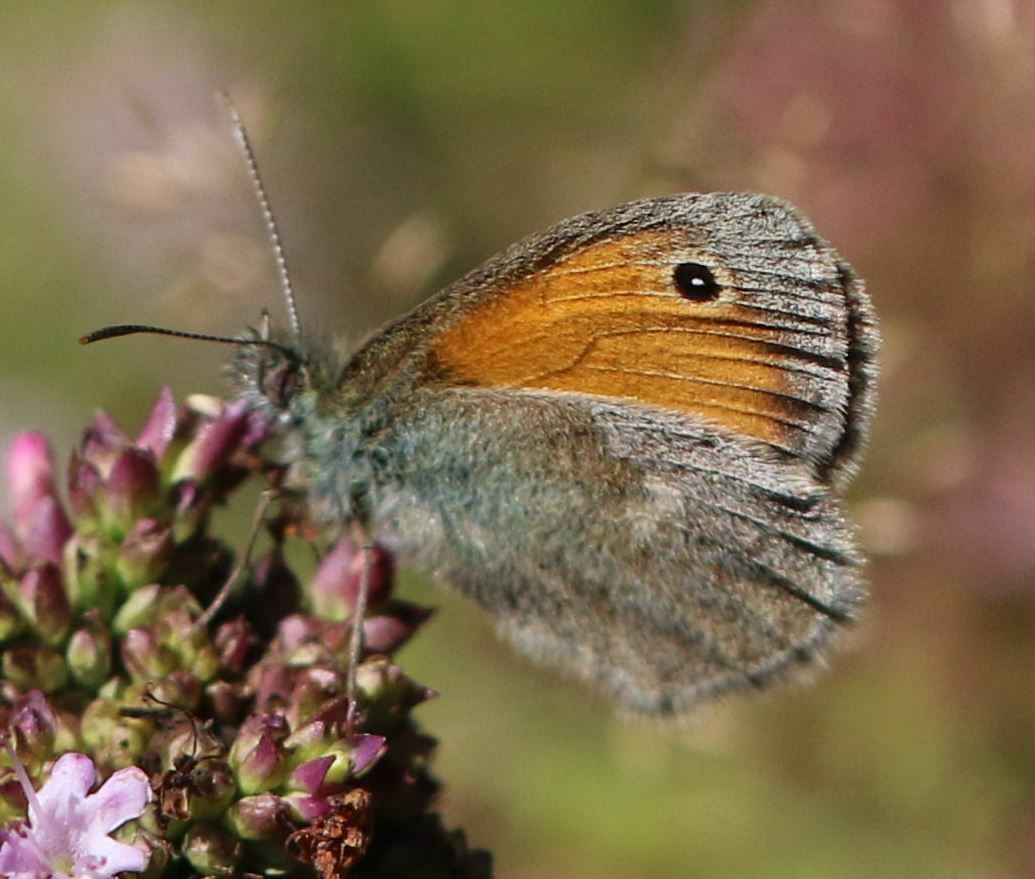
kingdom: Animalia
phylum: Arthropoda
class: Insecta
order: Lepidoptera
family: Nymphalidae
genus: Coenonympha
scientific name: Coenonympha pamphilus
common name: Small heath
